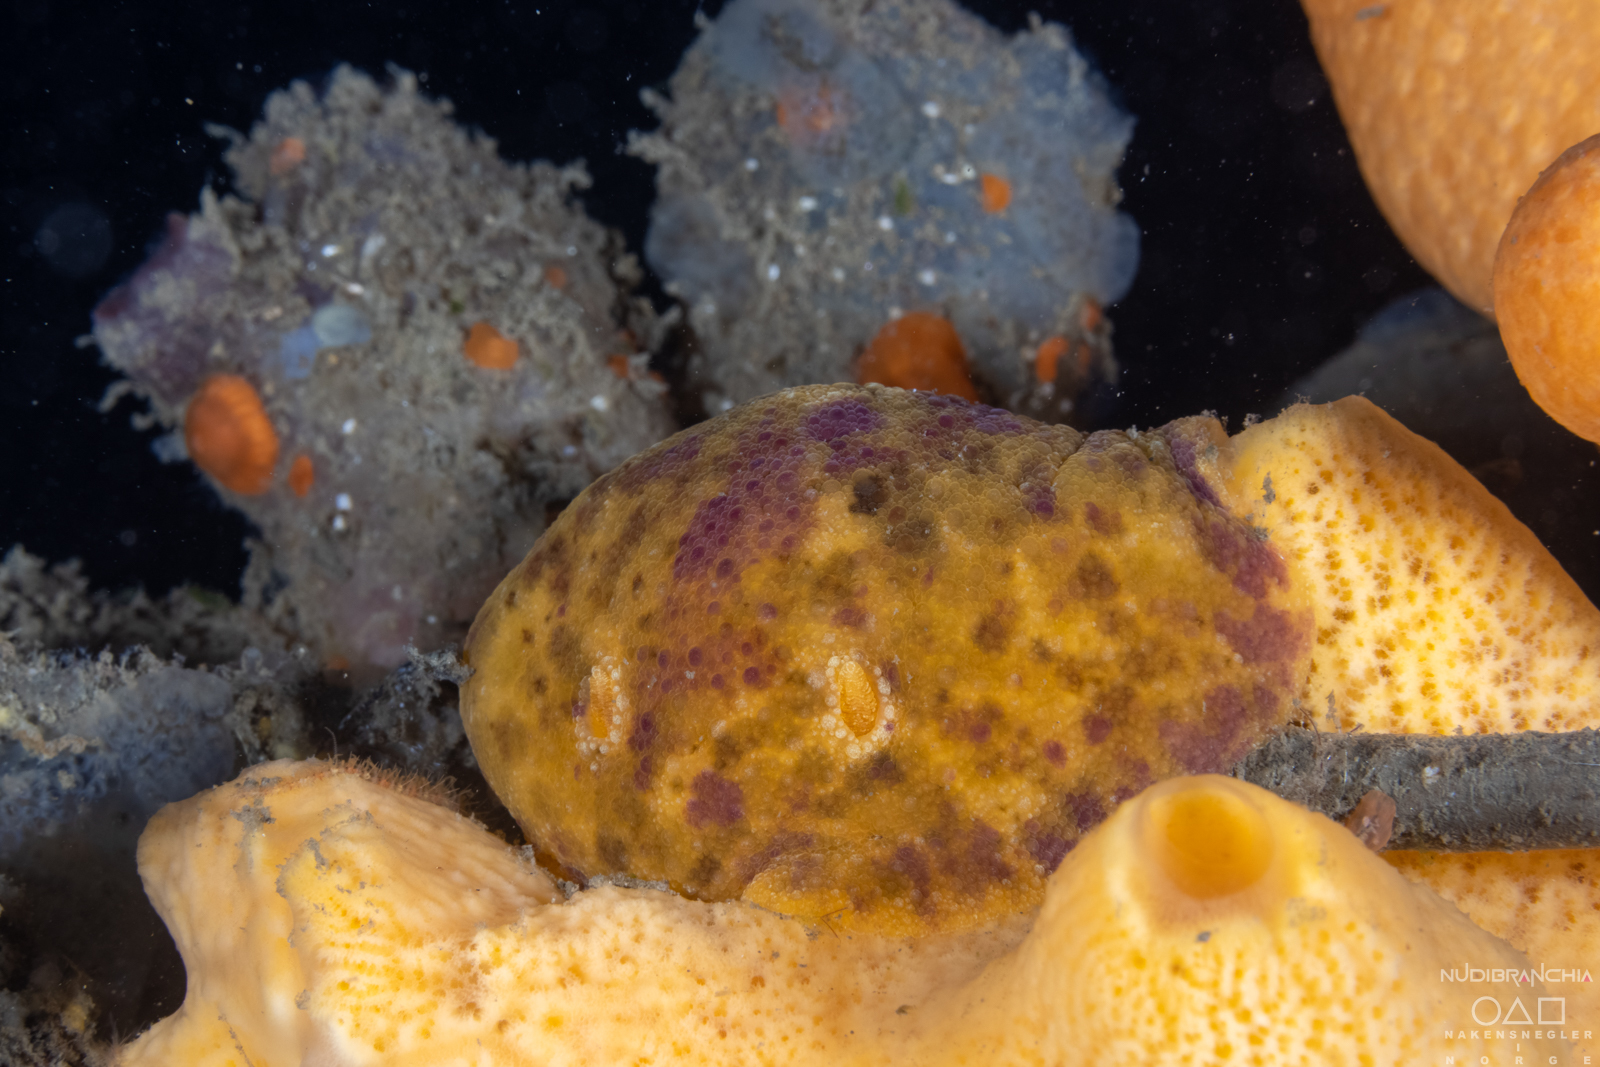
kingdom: Animalia
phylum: Mollusca
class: Gastropoda
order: Nudibranchia
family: Dorididae
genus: Doris
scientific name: Doris pseudoargus
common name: Sea lemon
